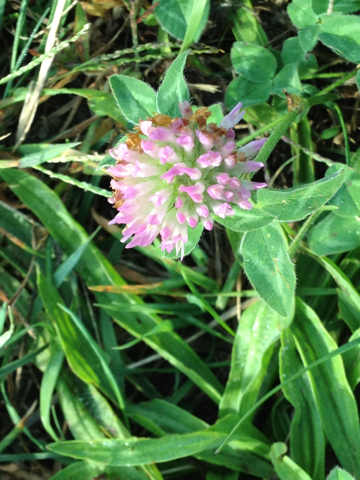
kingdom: Plantae
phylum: Tracheophyta
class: Magnoliopsida
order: Fabales
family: Fabaceae
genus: Trifolium
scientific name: Trifolium pratense
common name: Red clover
